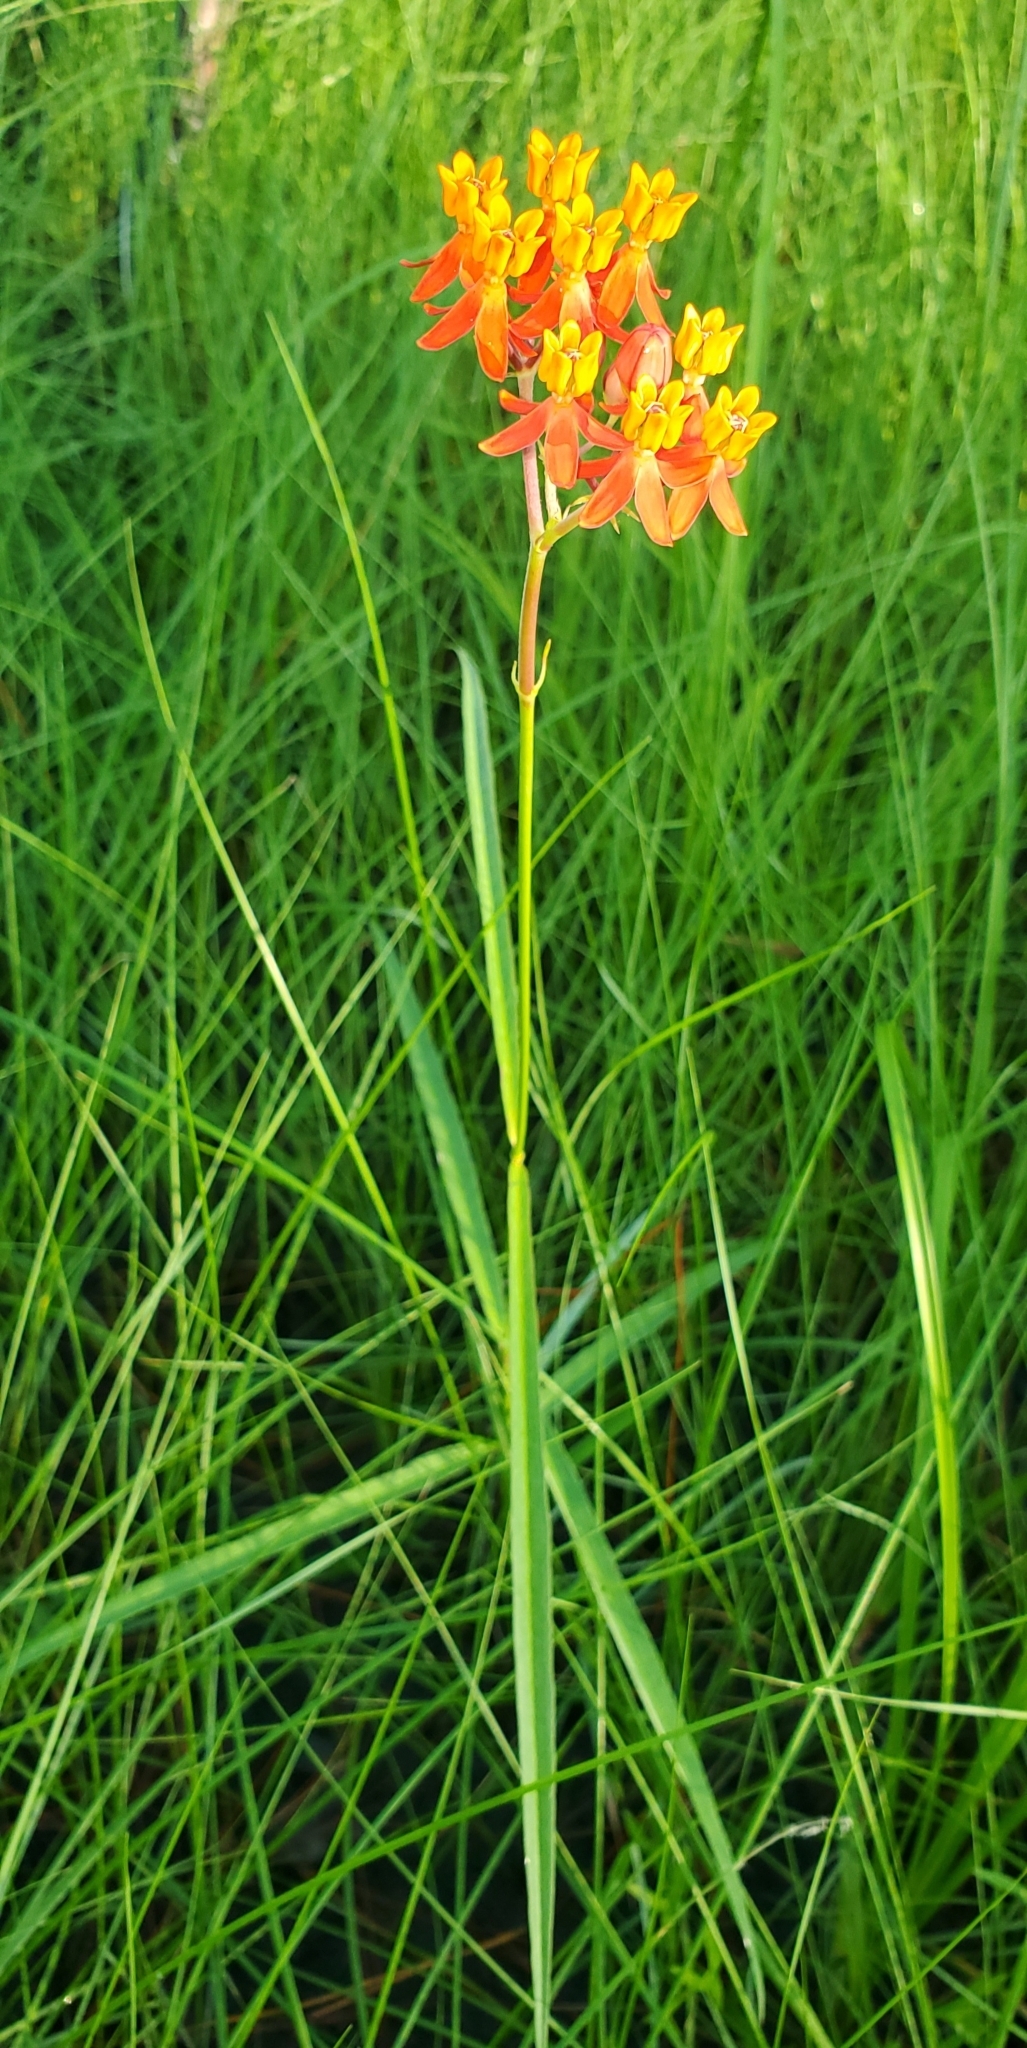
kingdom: Plantae
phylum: Tracheophyta
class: Magnoliopsida
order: Gentianales
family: Apocynaceae
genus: Asclepias
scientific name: Asclepias lanceolata
